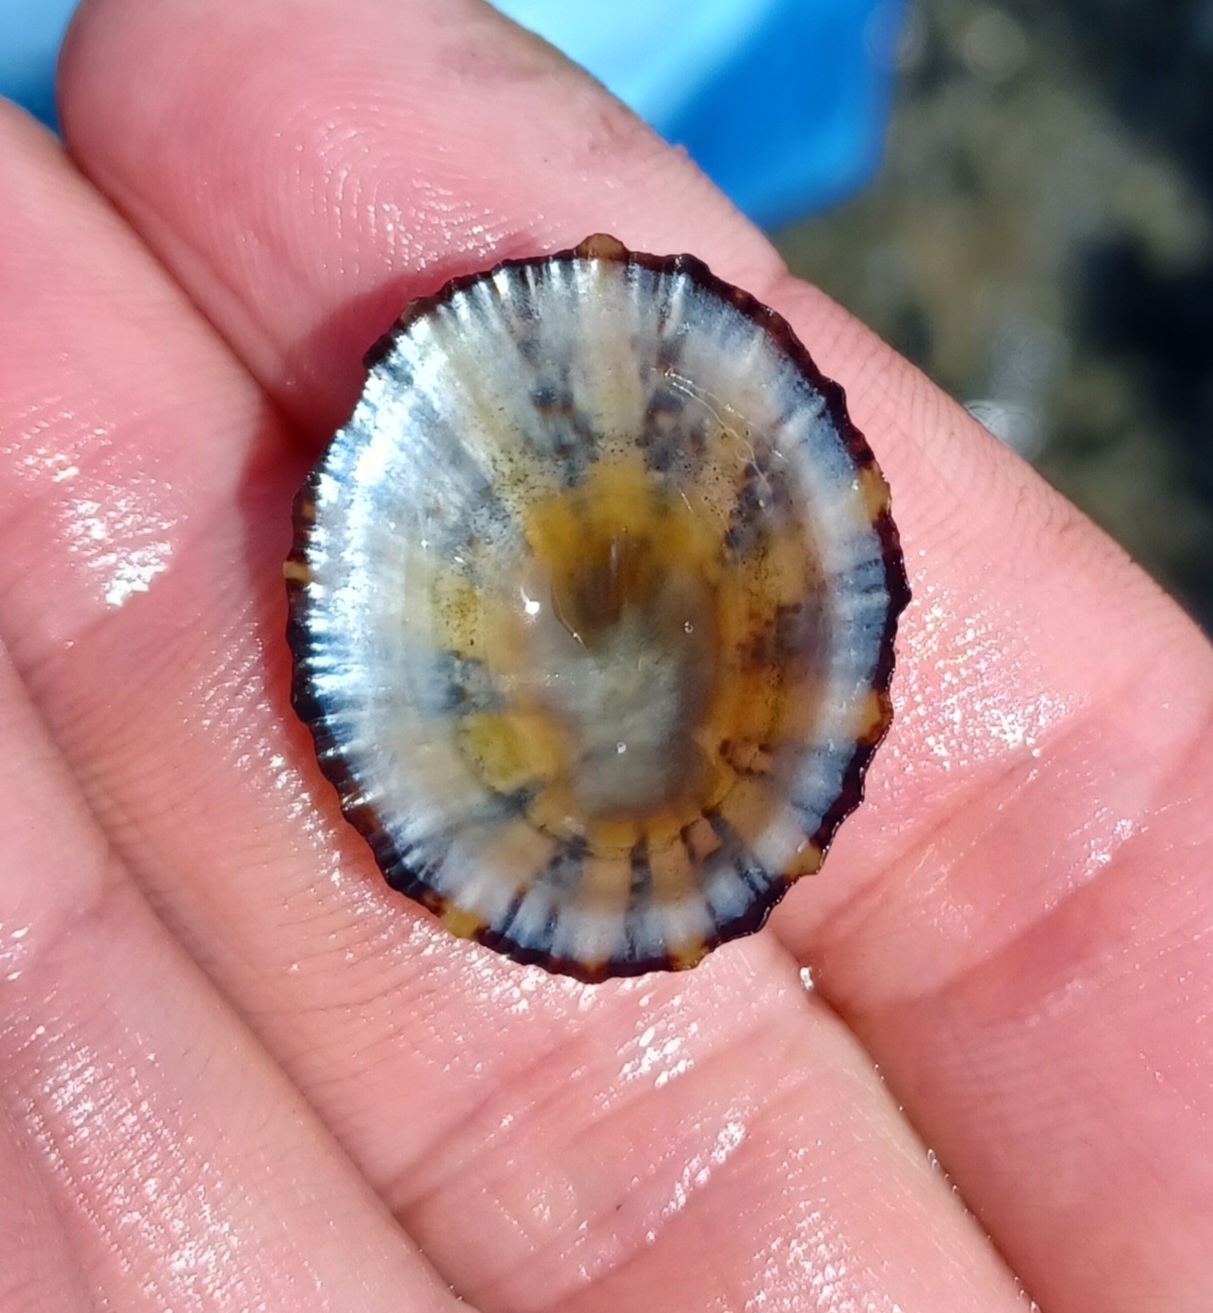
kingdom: Animalia
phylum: Mollusca
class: Gastropoda
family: Nacellidae
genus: Cellana
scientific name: Cellana tramoserica
